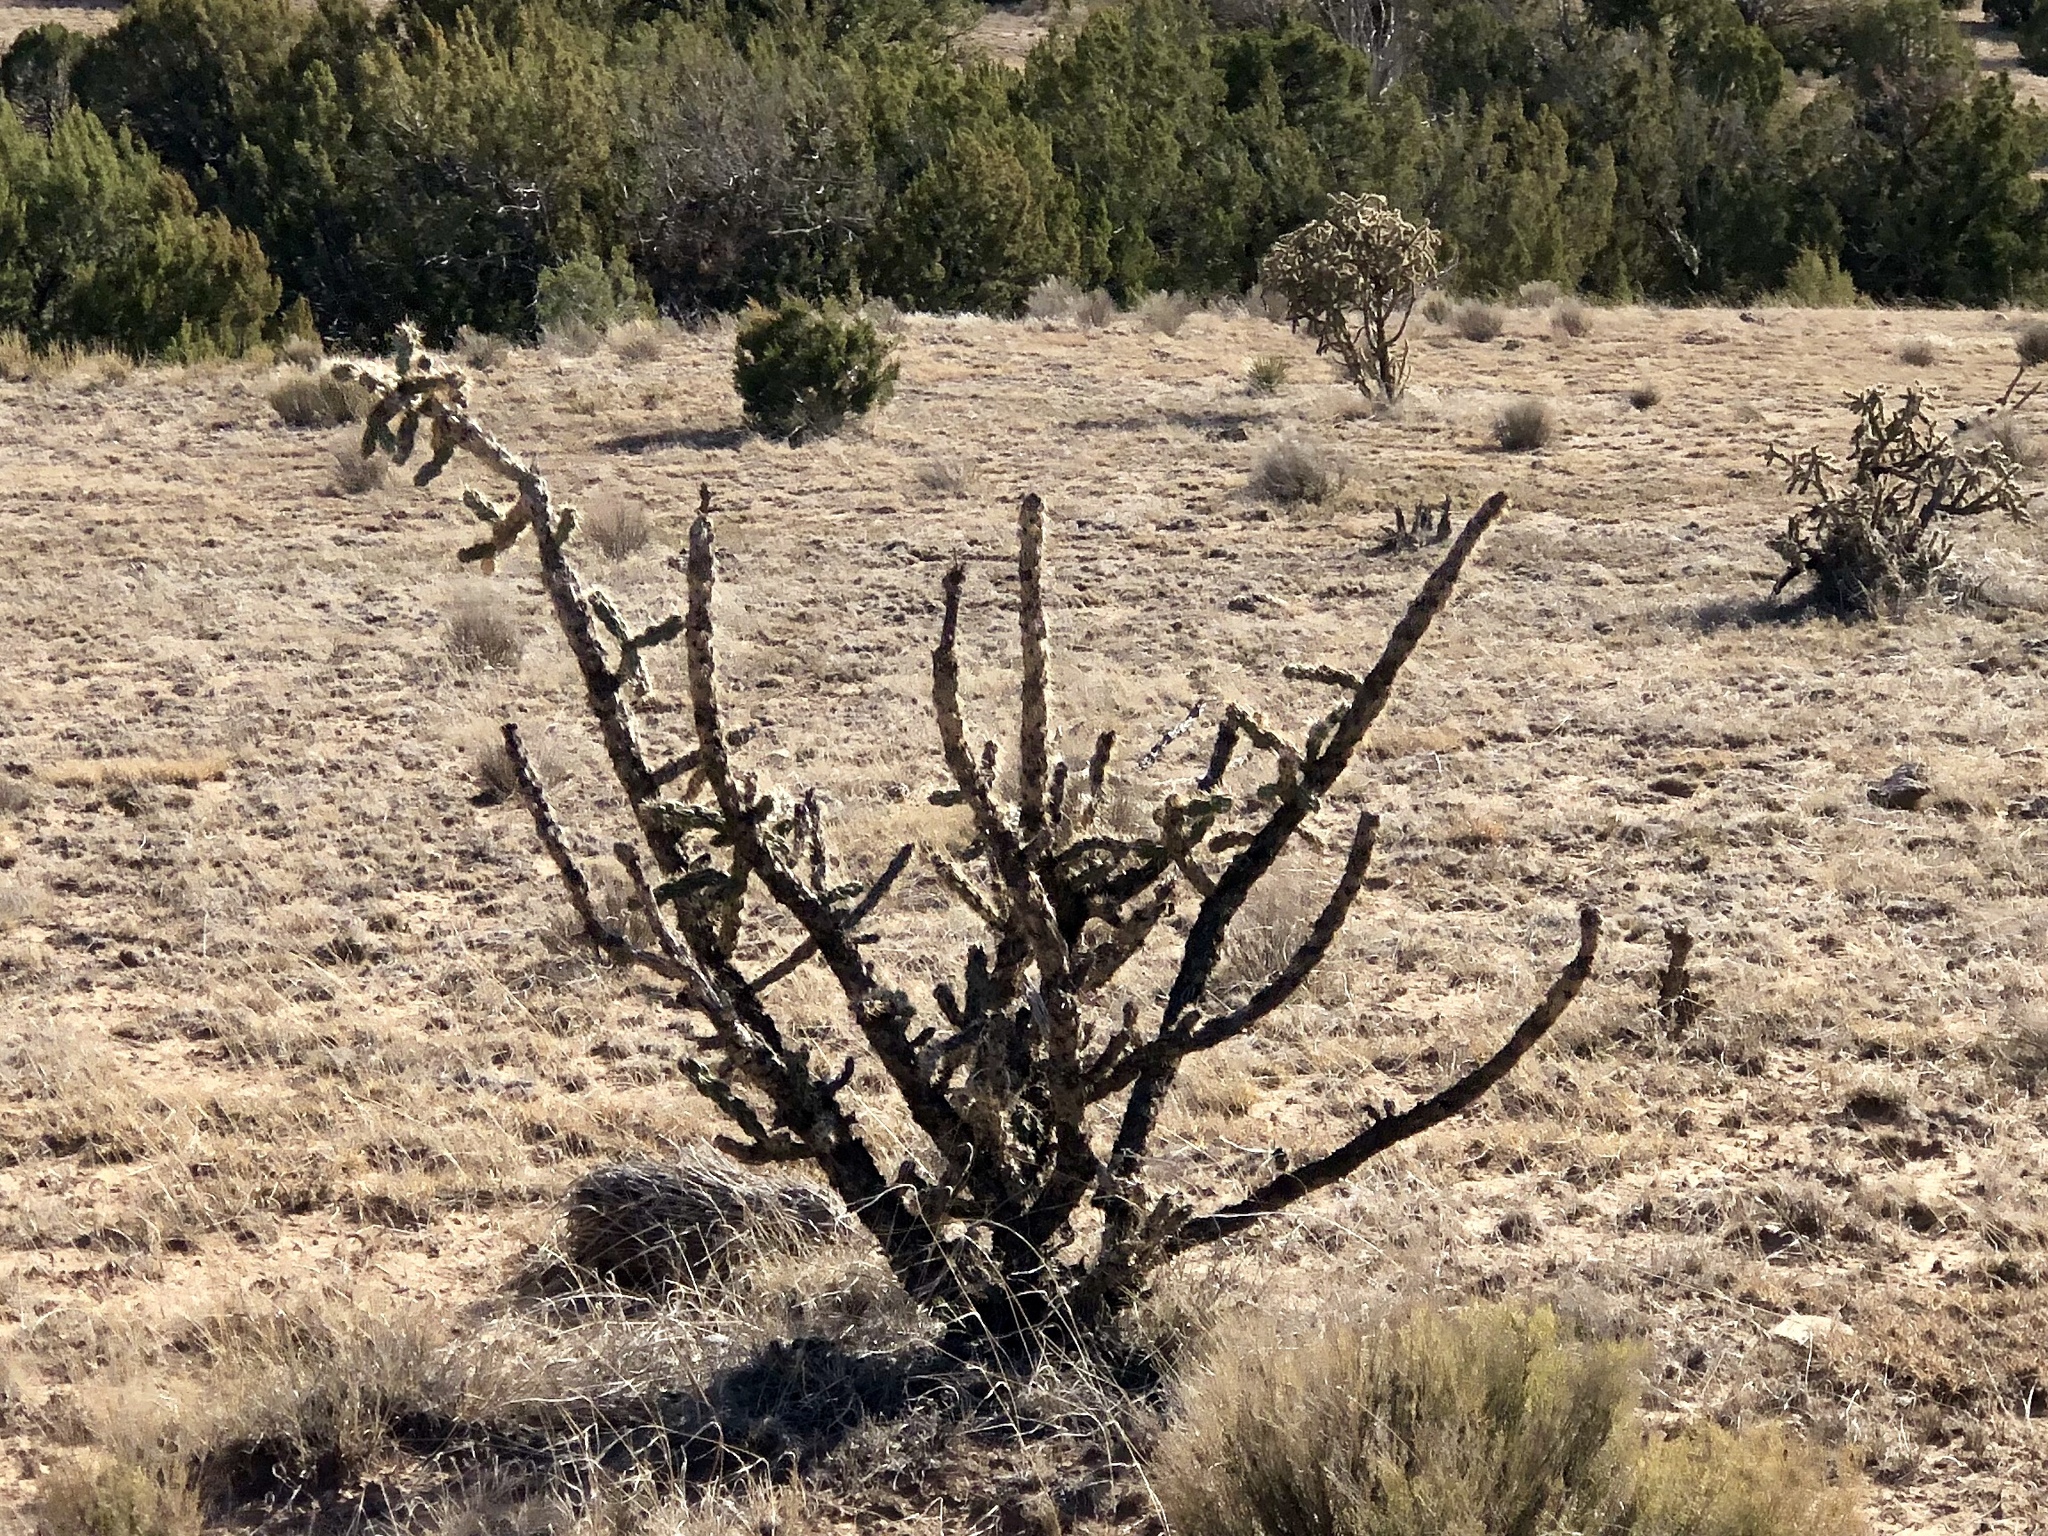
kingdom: Plantae
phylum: Tracheophyta
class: Magnoliopsida
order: Caryophyllales
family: Cactaceae
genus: Cylindropuntia
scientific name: Cylindropuntia imbricata
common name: Candelabrum cactus
